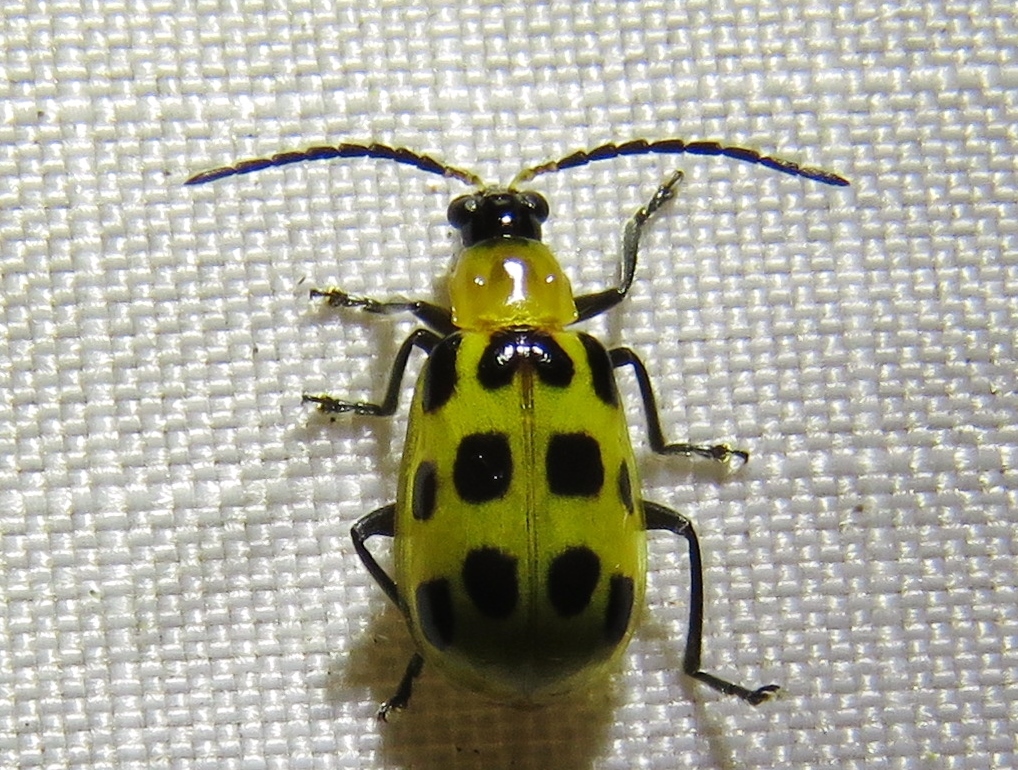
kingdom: Animalia
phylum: Arthropoda
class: Insecta
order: Coleoptera
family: Chrysomelidae
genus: Diabrotica
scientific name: Diabrotica undecimpunctata
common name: Spotted cucumber beetle
